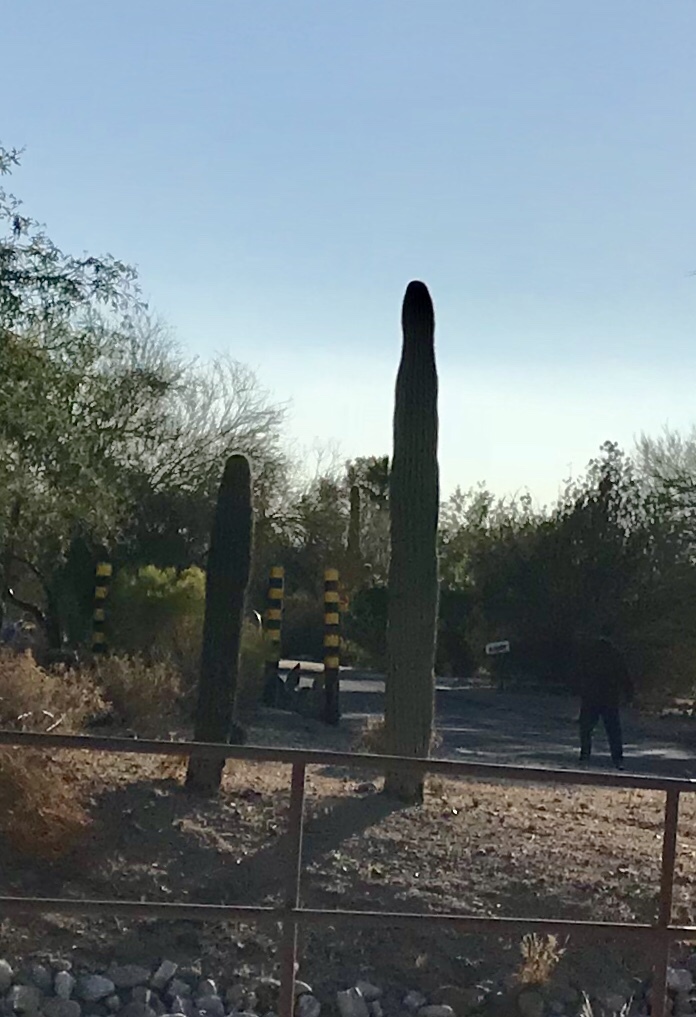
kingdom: Plantae
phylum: Tracheophyta
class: Magnoliopsida
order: Caryophyllales
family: Cactaceae
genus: Carnegiea
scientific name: Carnegiea gigantea
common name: Saguaro
